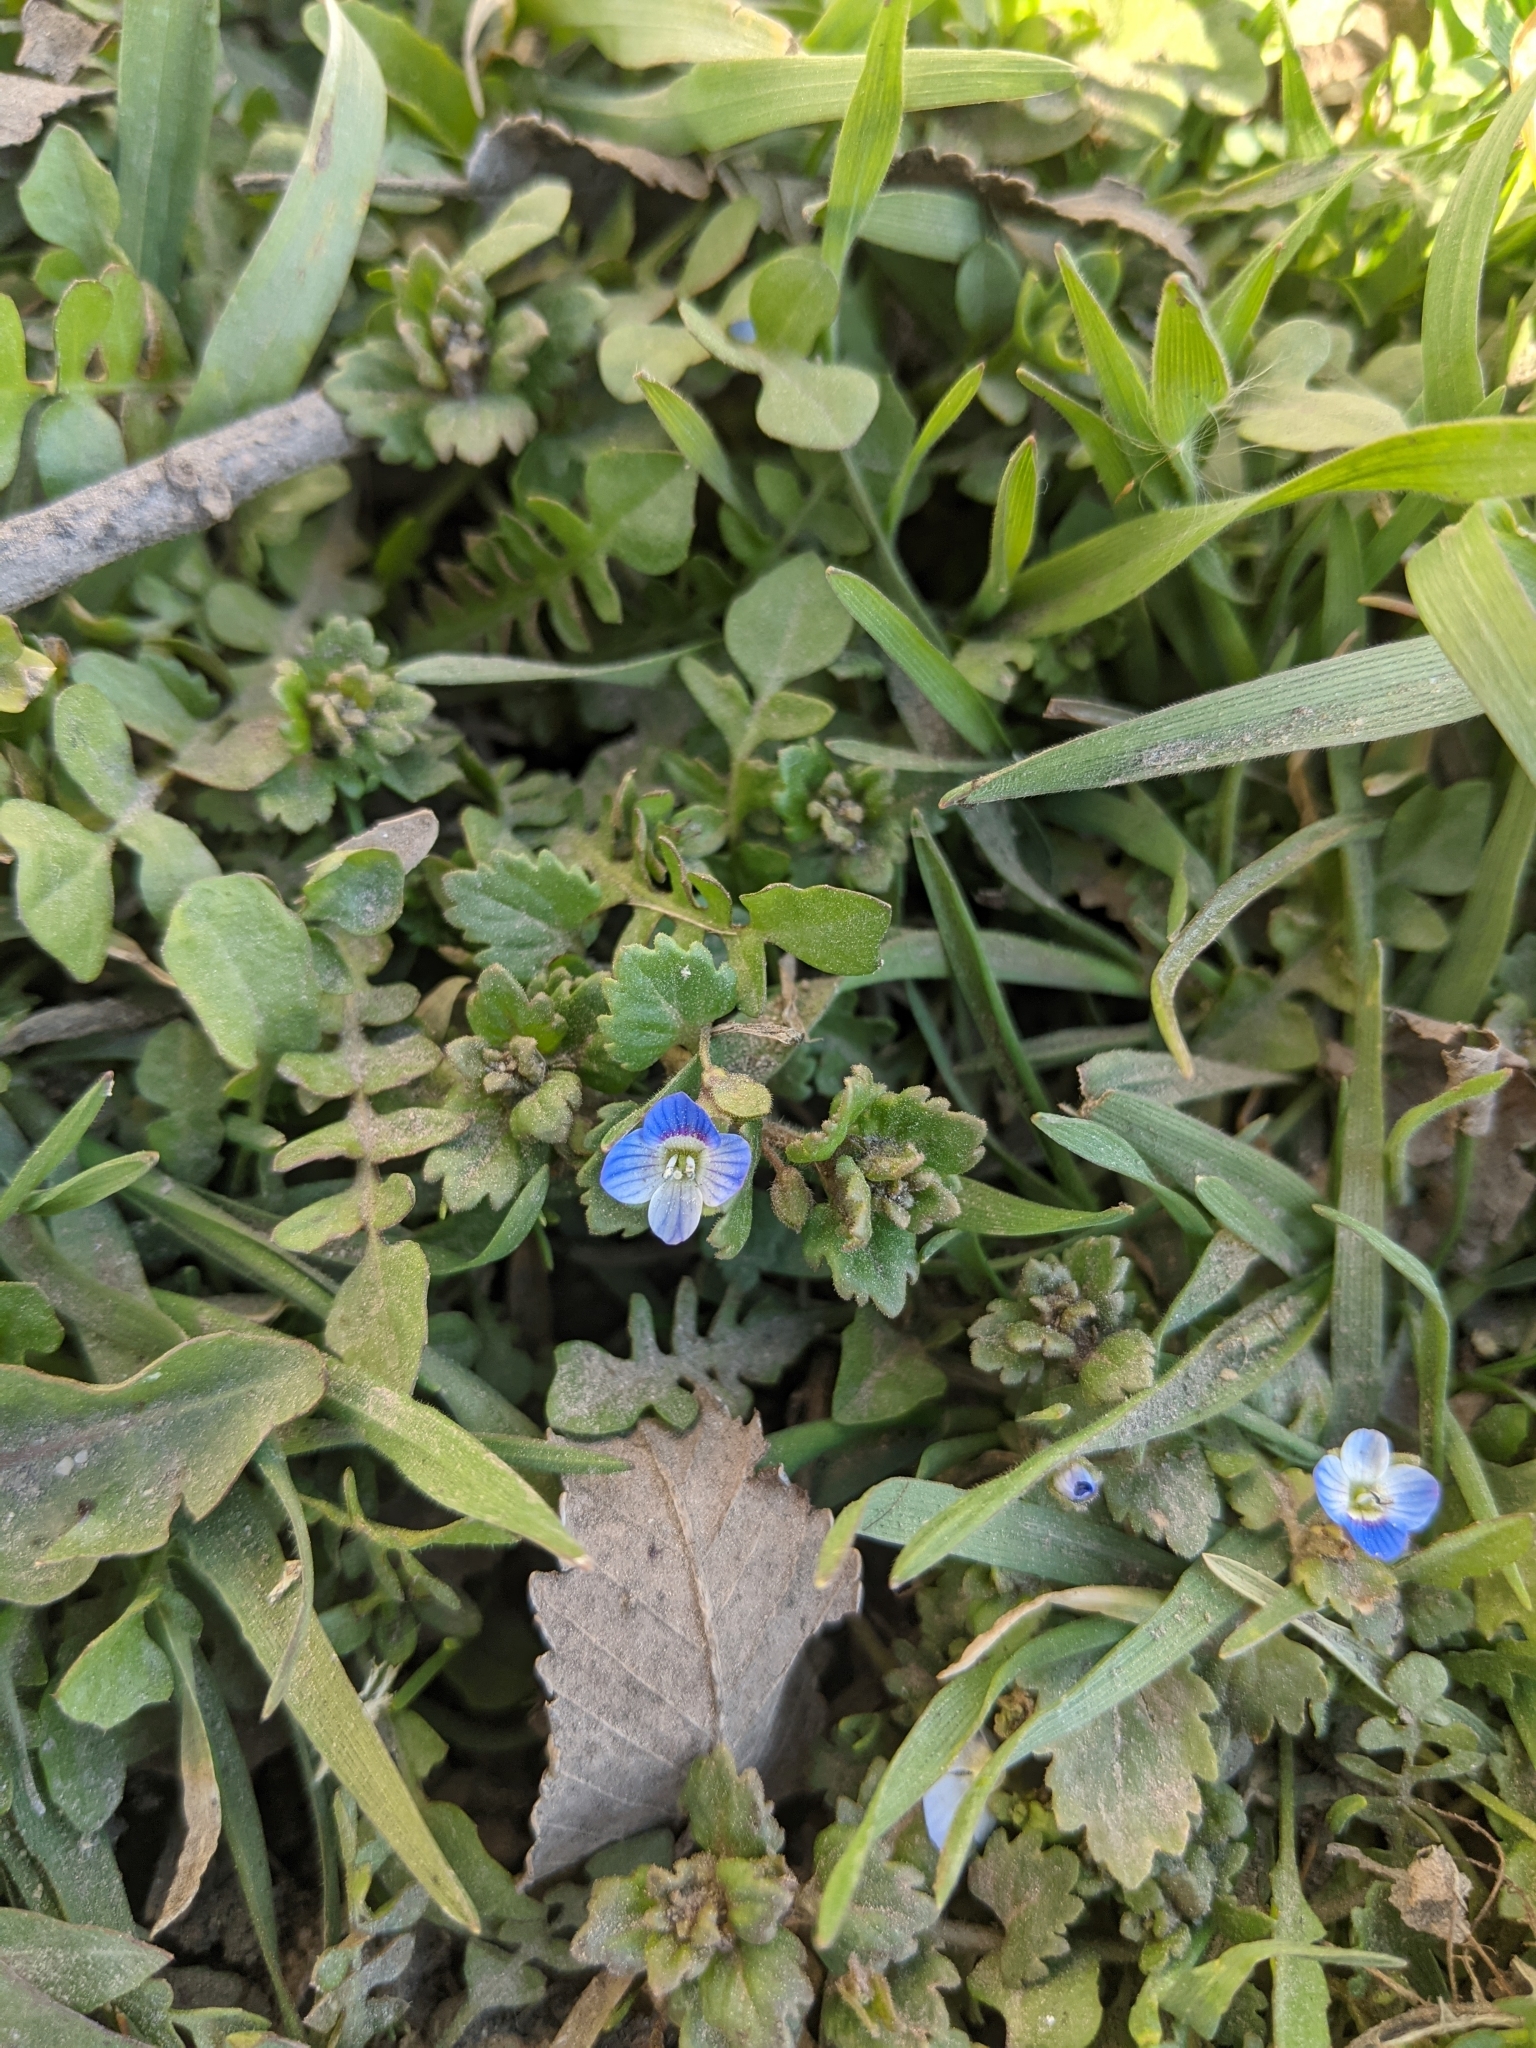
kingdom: Plantae
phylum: Tracheophyta
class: Magnoliopsida
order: Lamiales
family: Plantaginaceae
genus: Veronica
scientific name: Veronica polita
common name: Grey field-speedwell
